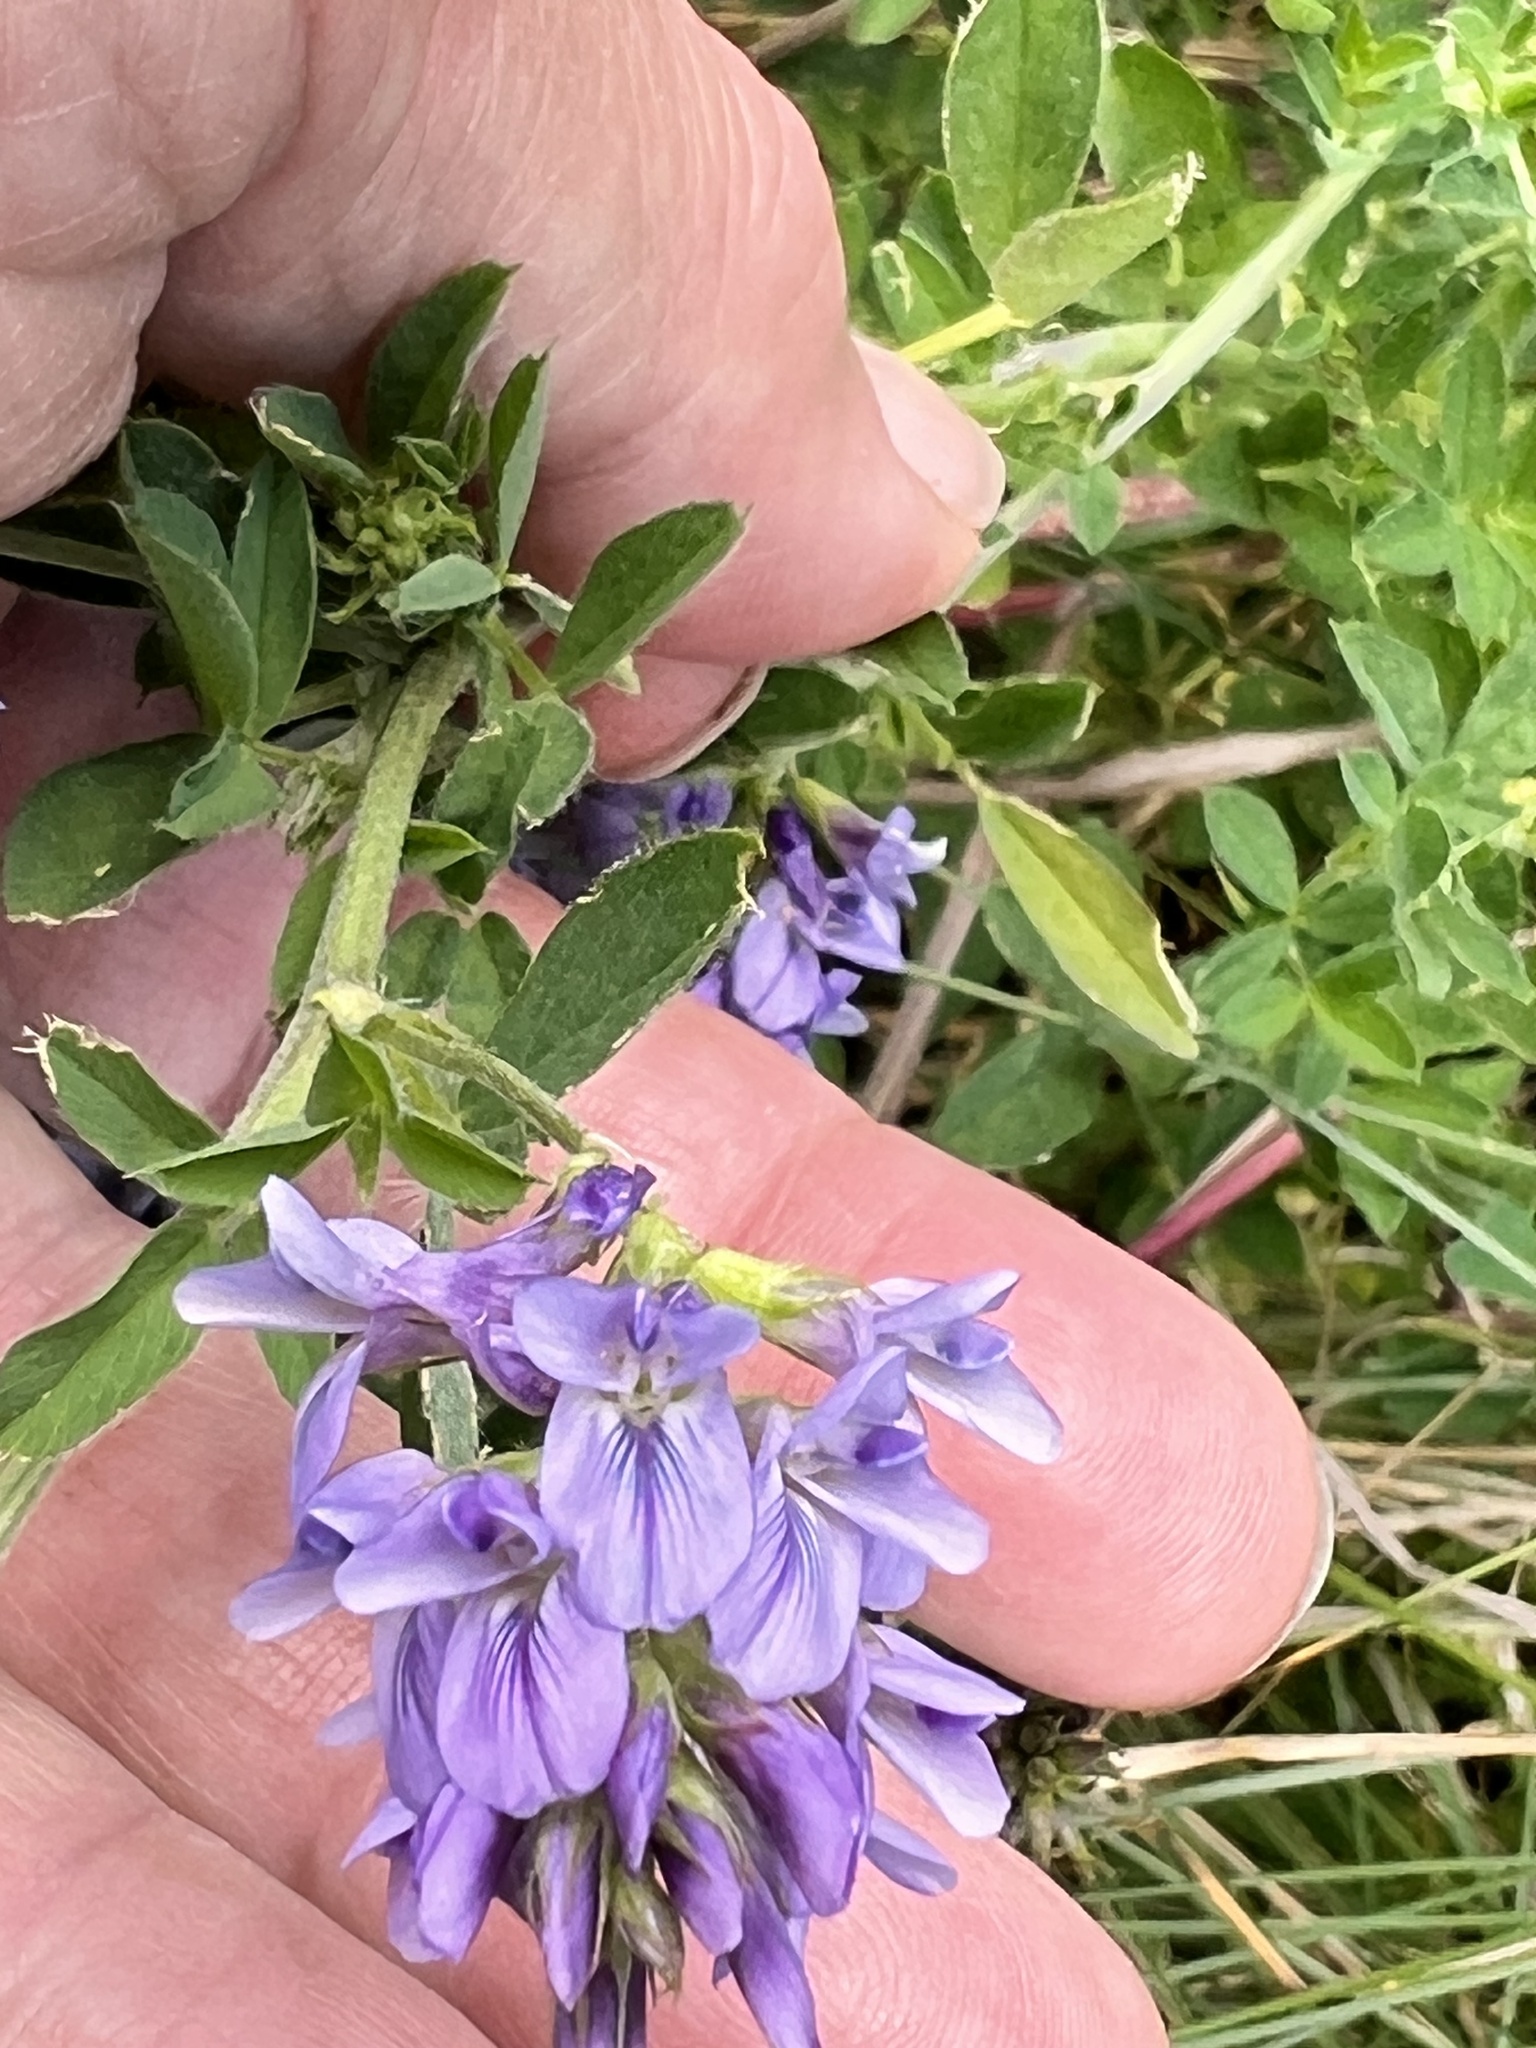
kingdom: Plantae
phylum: Tracheophyta
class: Magnoliopsida
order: Fabales
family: Fabaceae
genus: Medicago
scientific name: Medicago sativa
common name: Alfalfa
